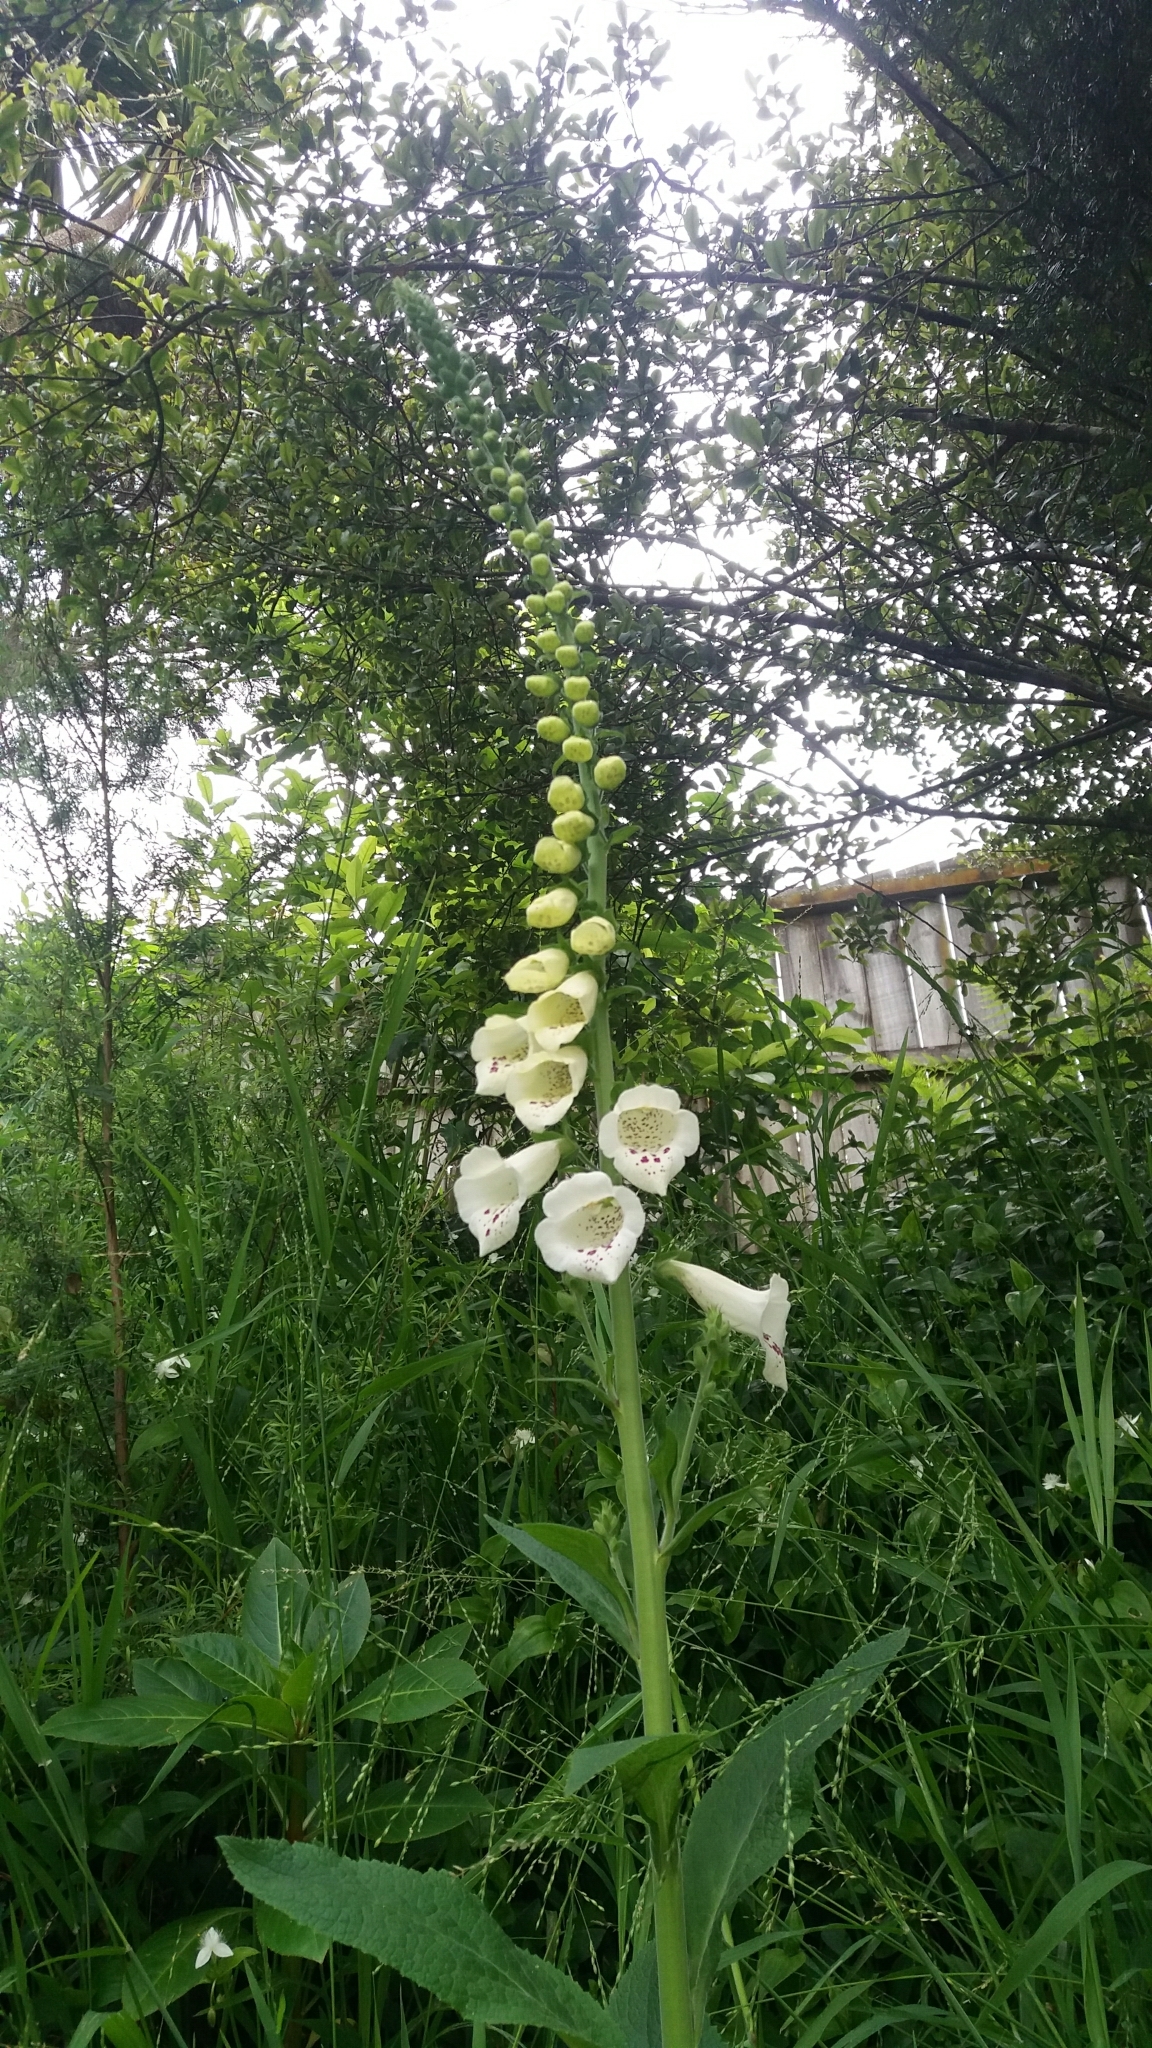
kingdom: Plantae
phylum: Tracheophyta
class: Magnoliopsida
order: Lamiales
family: Plantaginaceae
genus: Digitalis
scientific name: Digitalis purpurea
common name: Foxglove
